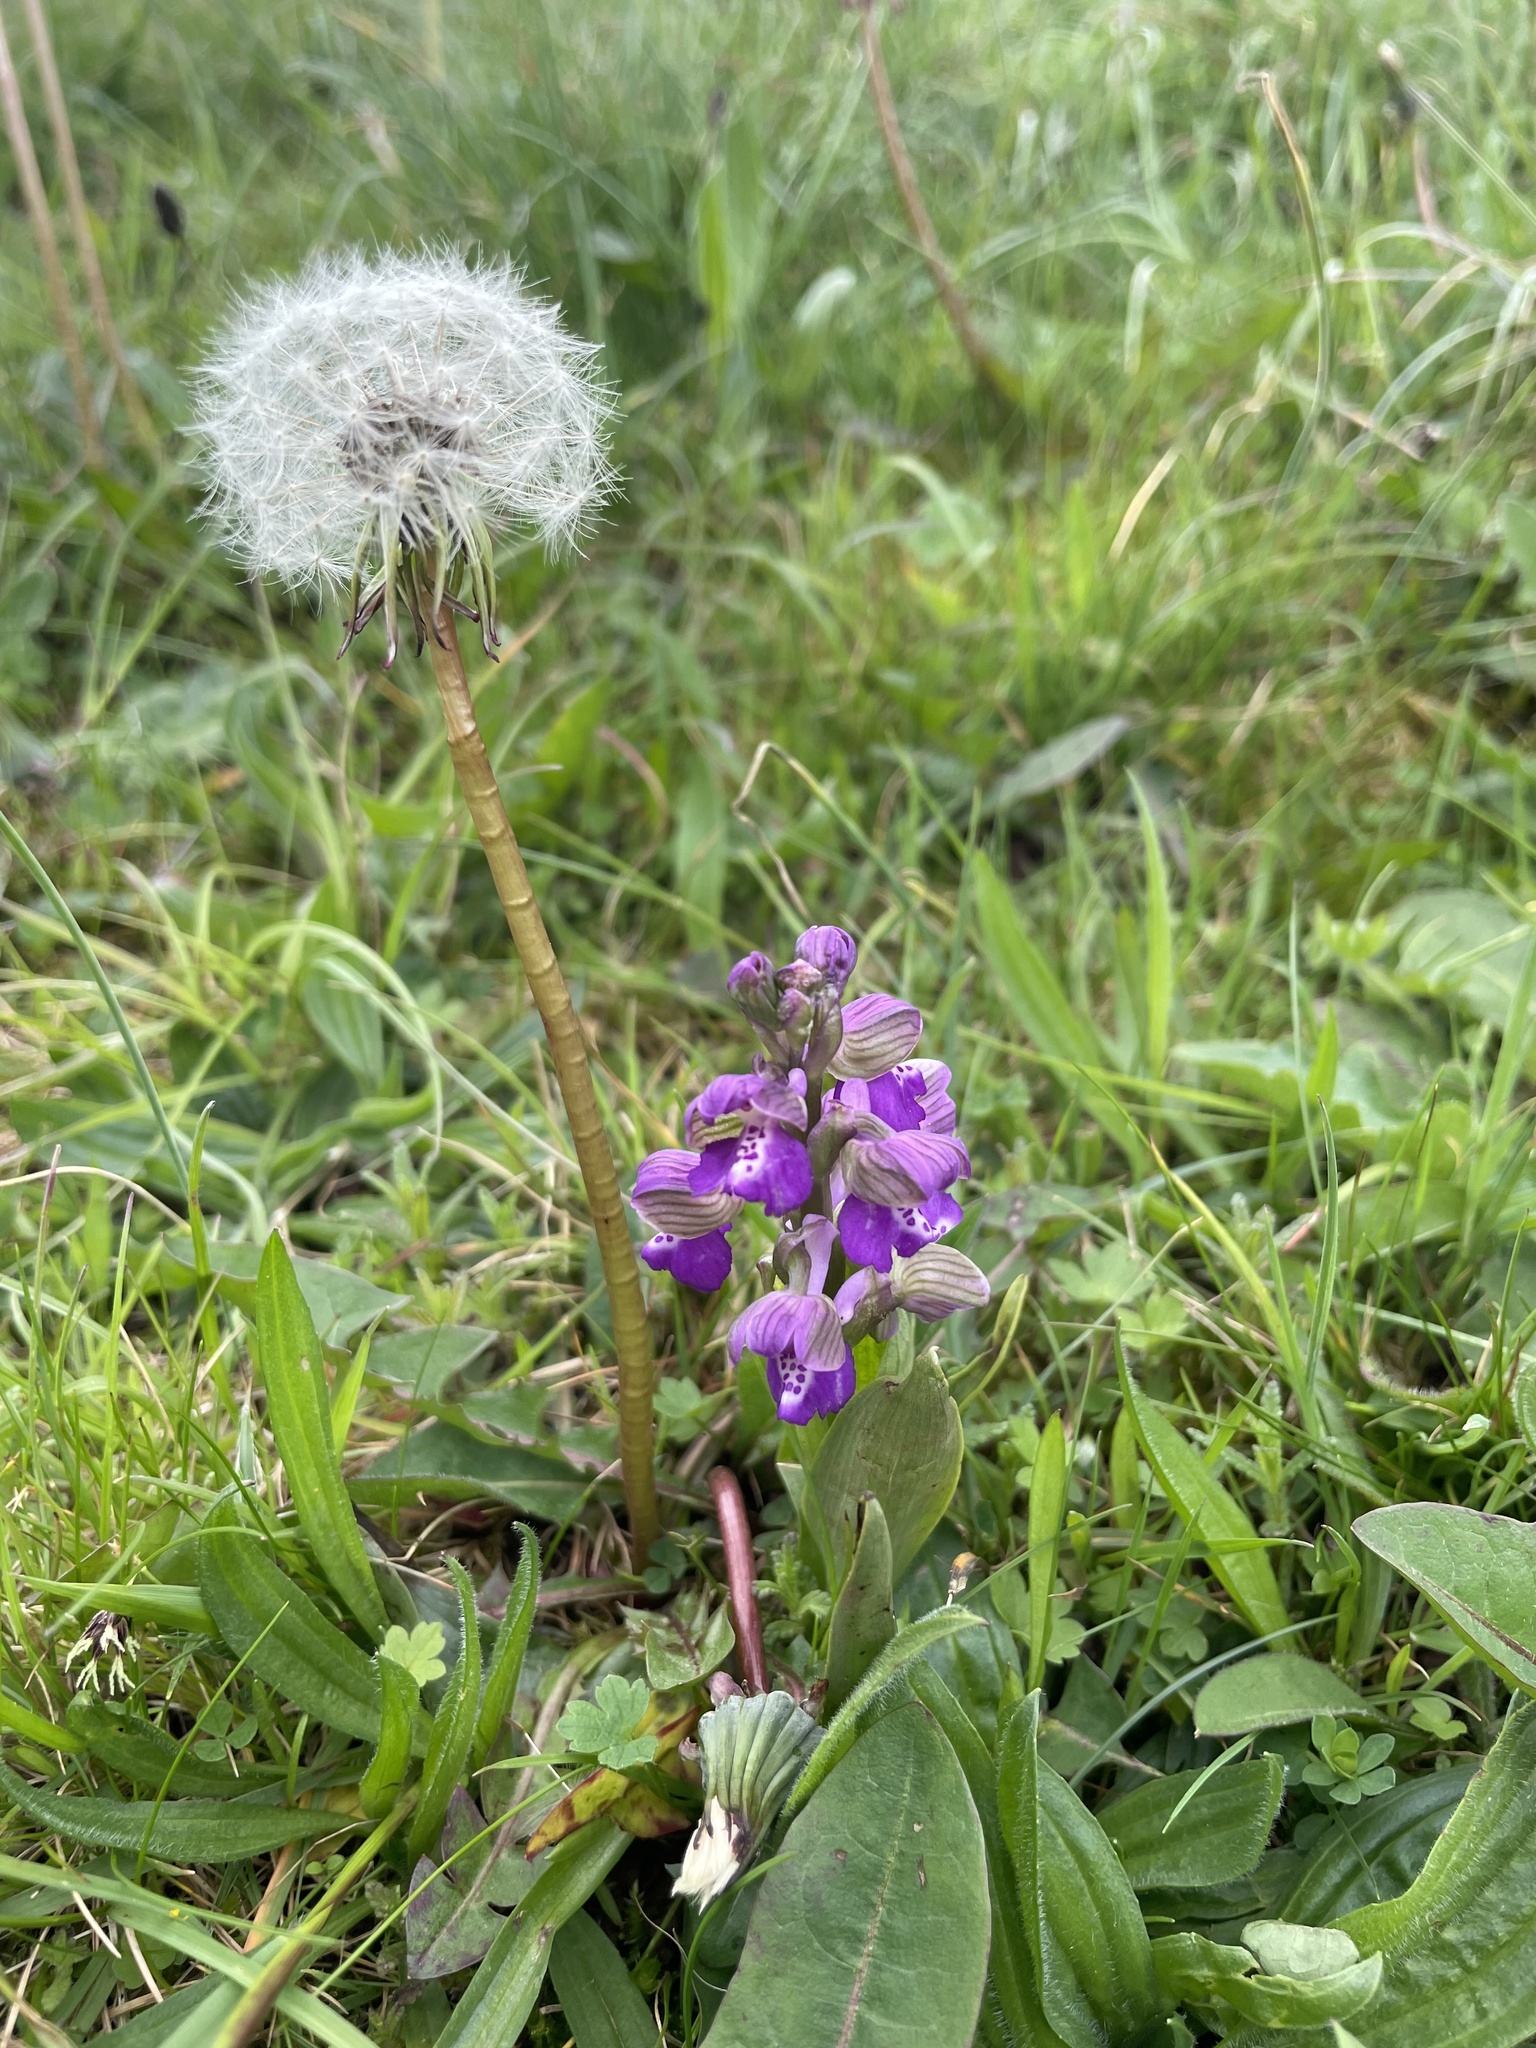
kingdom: Plantae
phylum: Tracheophyta
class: Liliopsida
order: Asparagales
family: Orchidaceae
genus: Anacamptis
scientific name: Anacamptis morio
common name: Green-winged orchid
